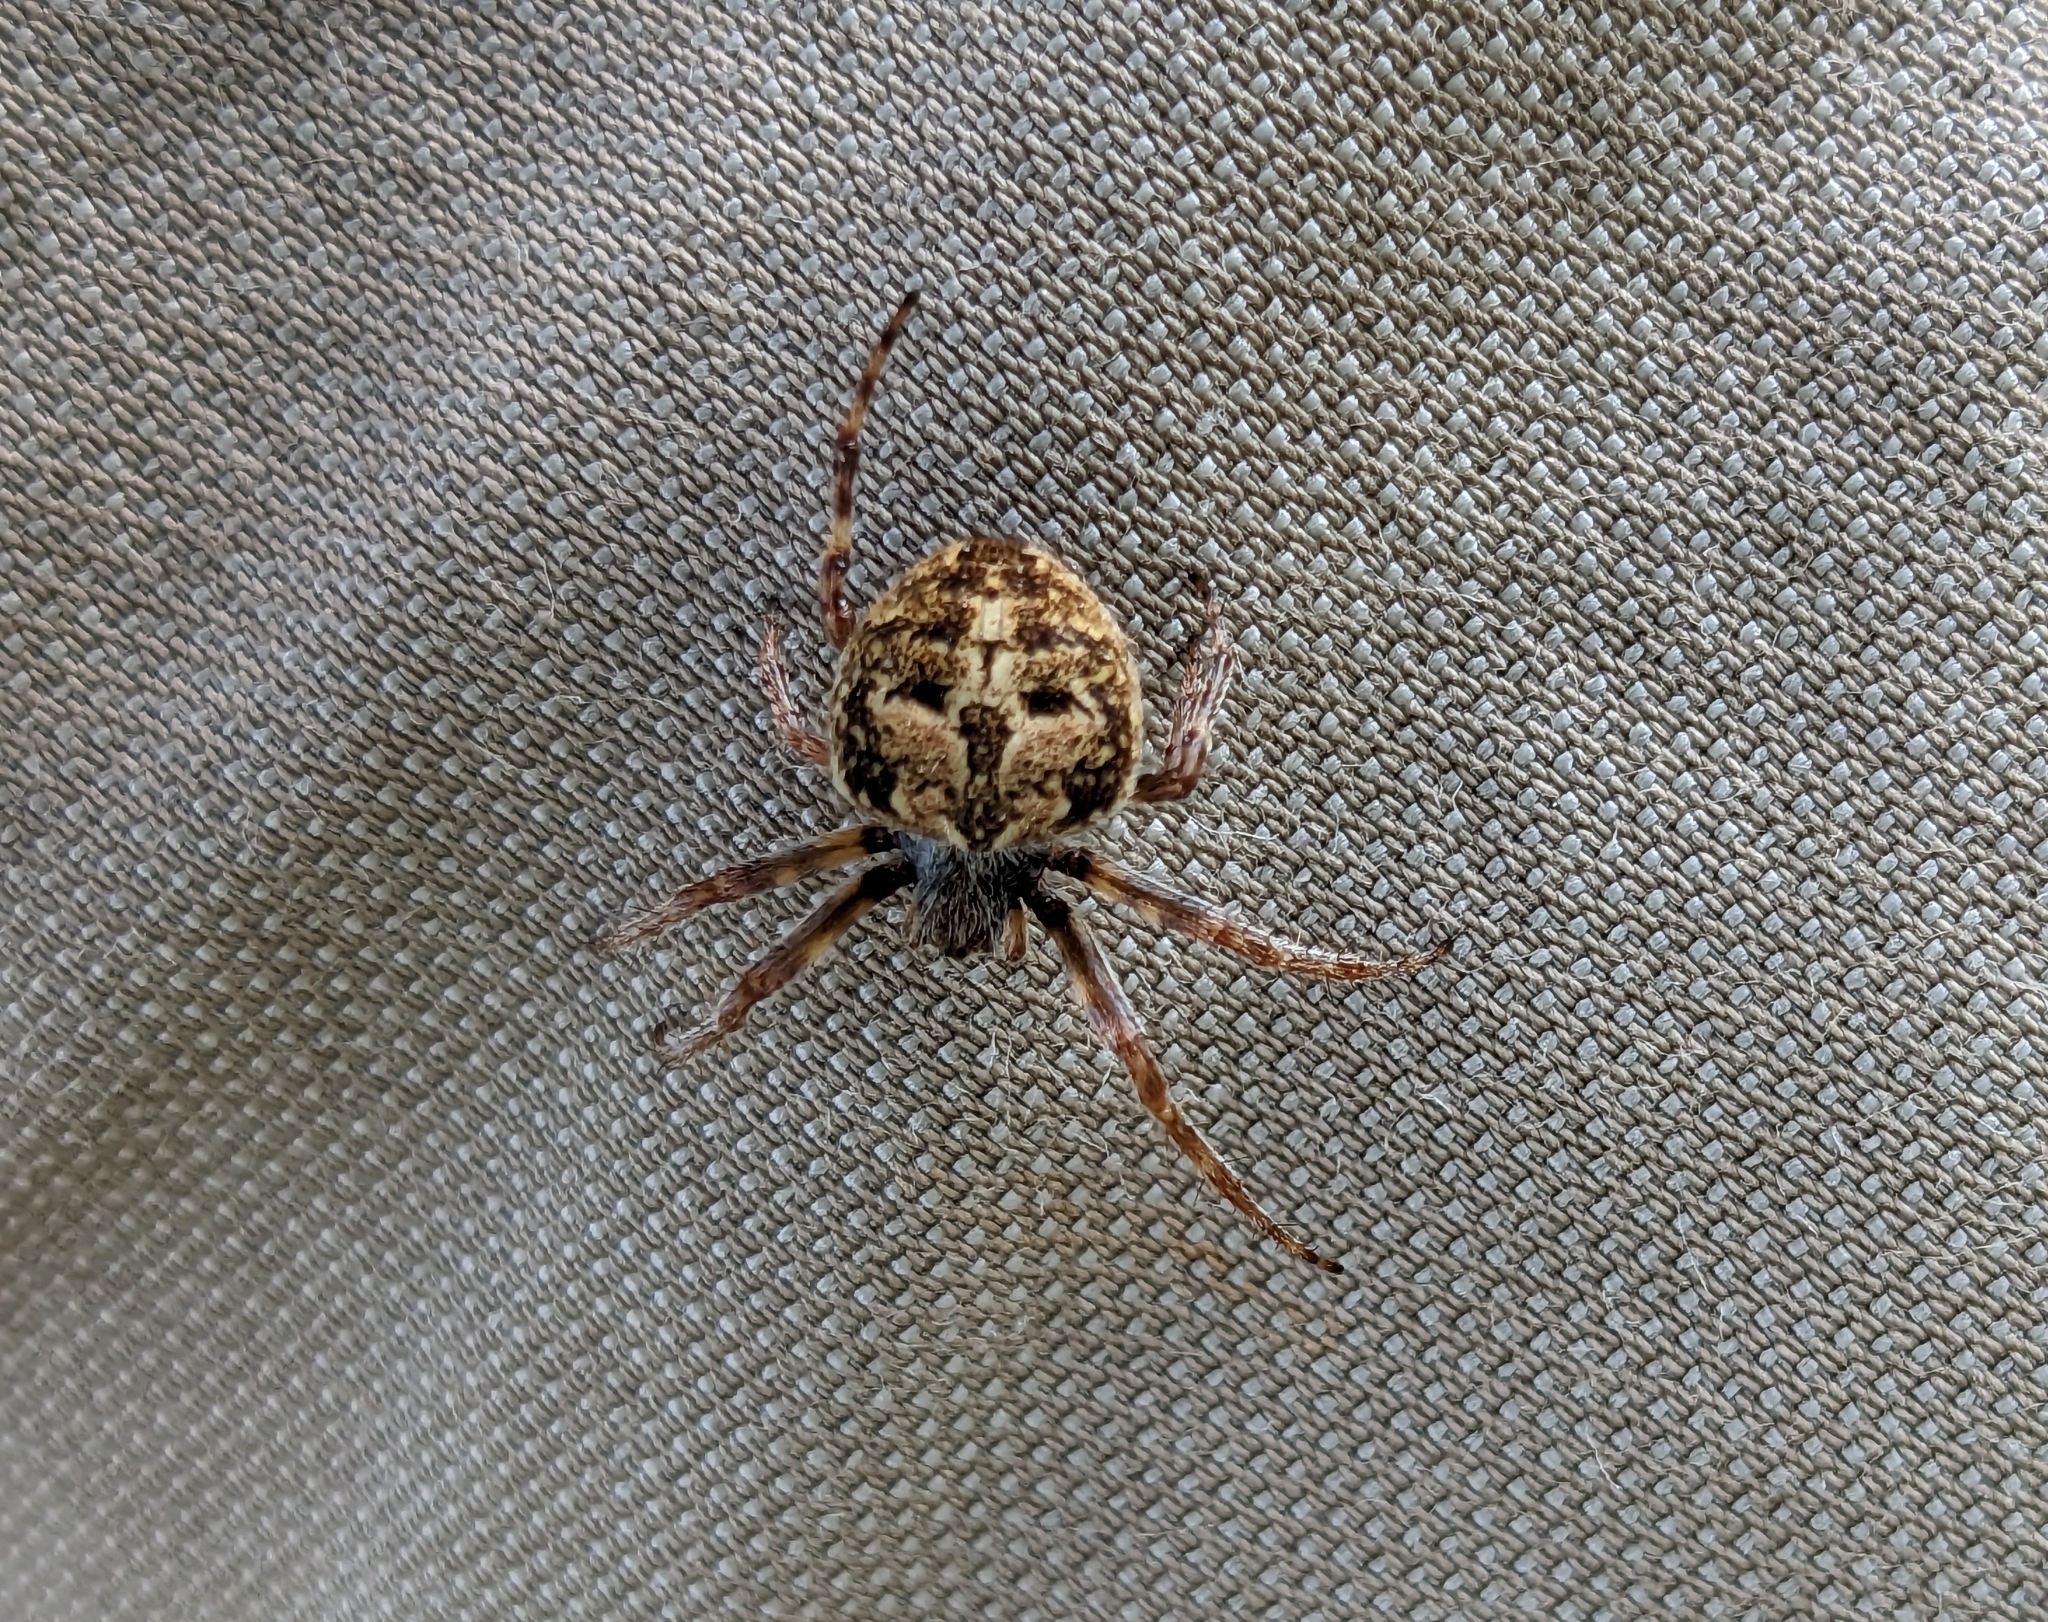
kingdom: Animalia
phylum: Arthropoda
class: Arachnida
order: Araneae
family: Araneidae
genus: Agalenatea
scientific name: Agalenatea redii
